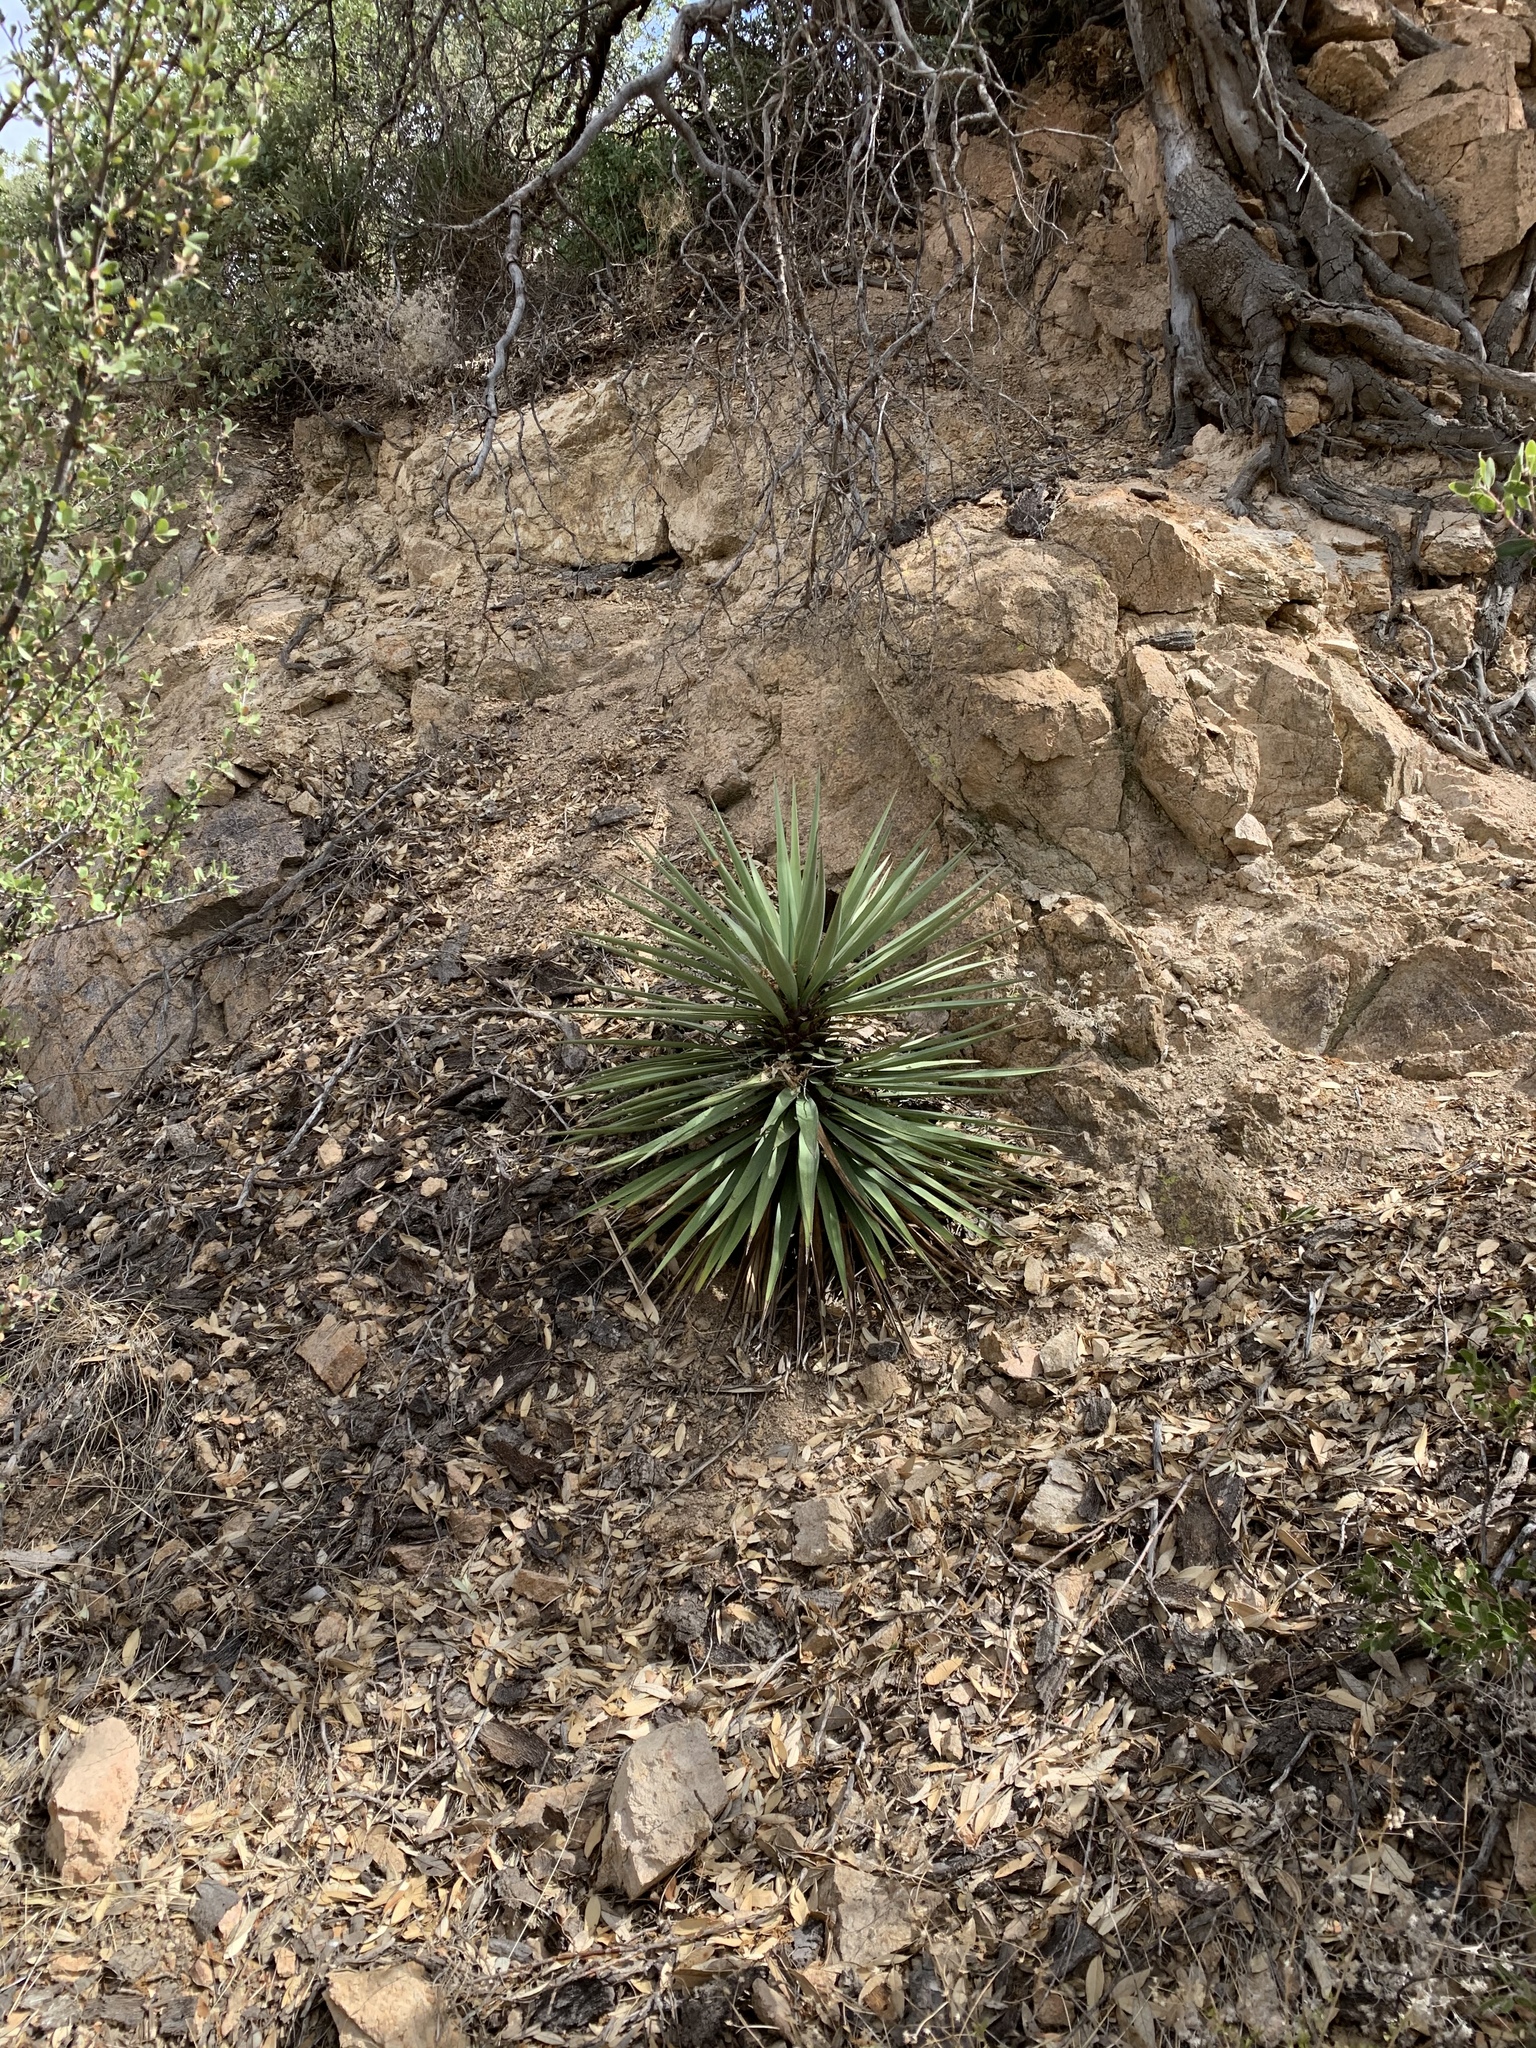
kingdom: Plantae
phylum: Tracheophyta
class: Liliopsida
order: Asparagales
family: Asparagaceae
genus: Yucca
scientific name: Yucca madrensis
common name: Hoary yucca
